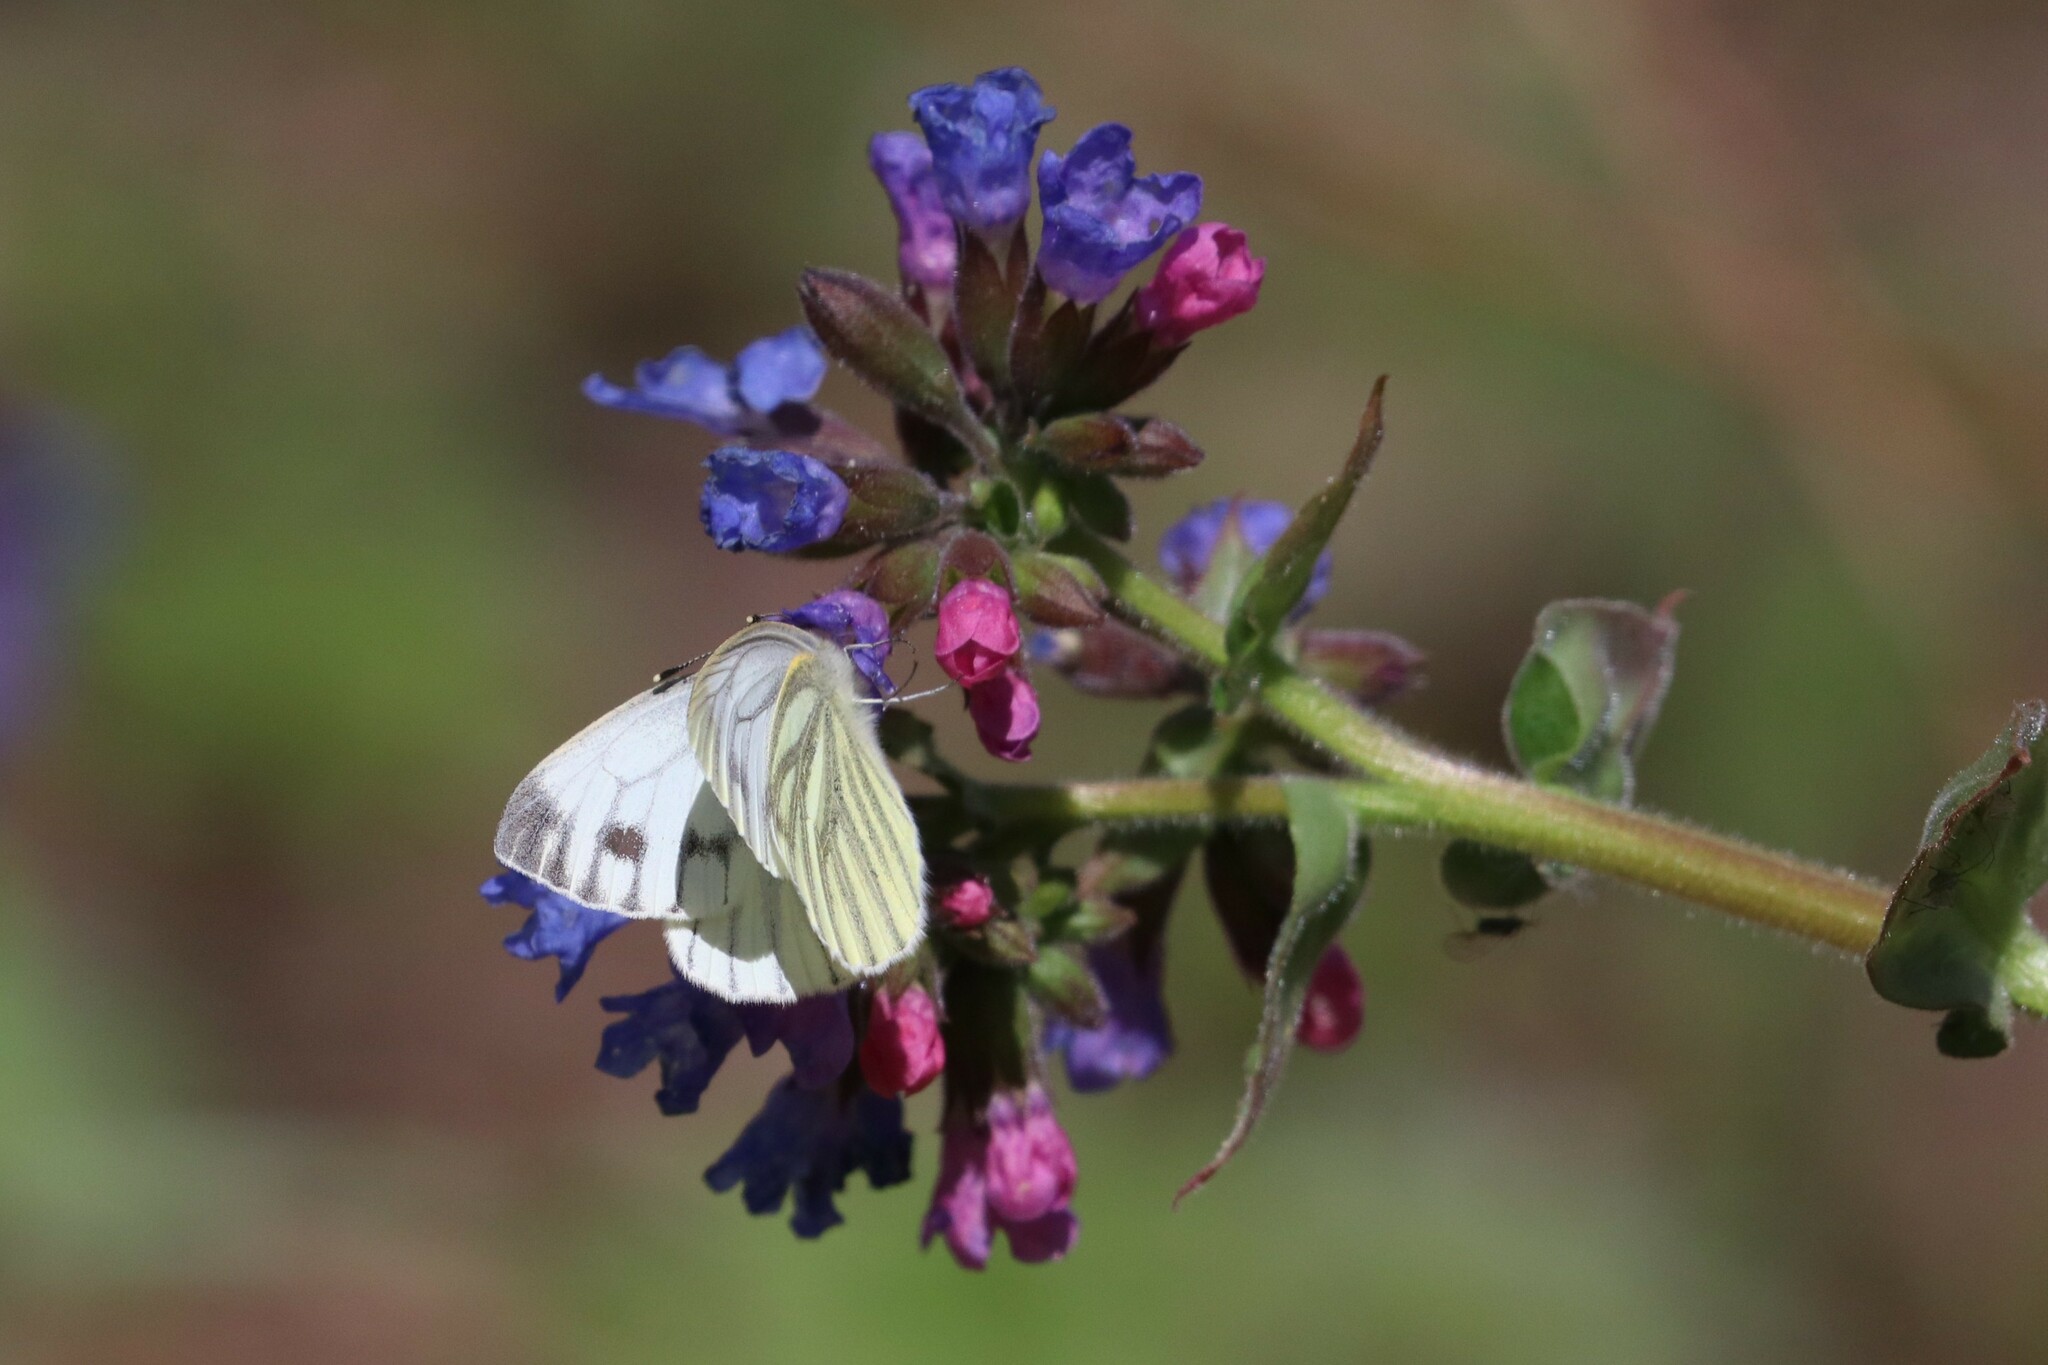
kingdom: Plantae
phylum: Tracheophyta
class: Magnoliopsida
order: Boraginales
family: Boraginaceae
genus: Pulmonaria
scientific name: Pulmonaria mollis
